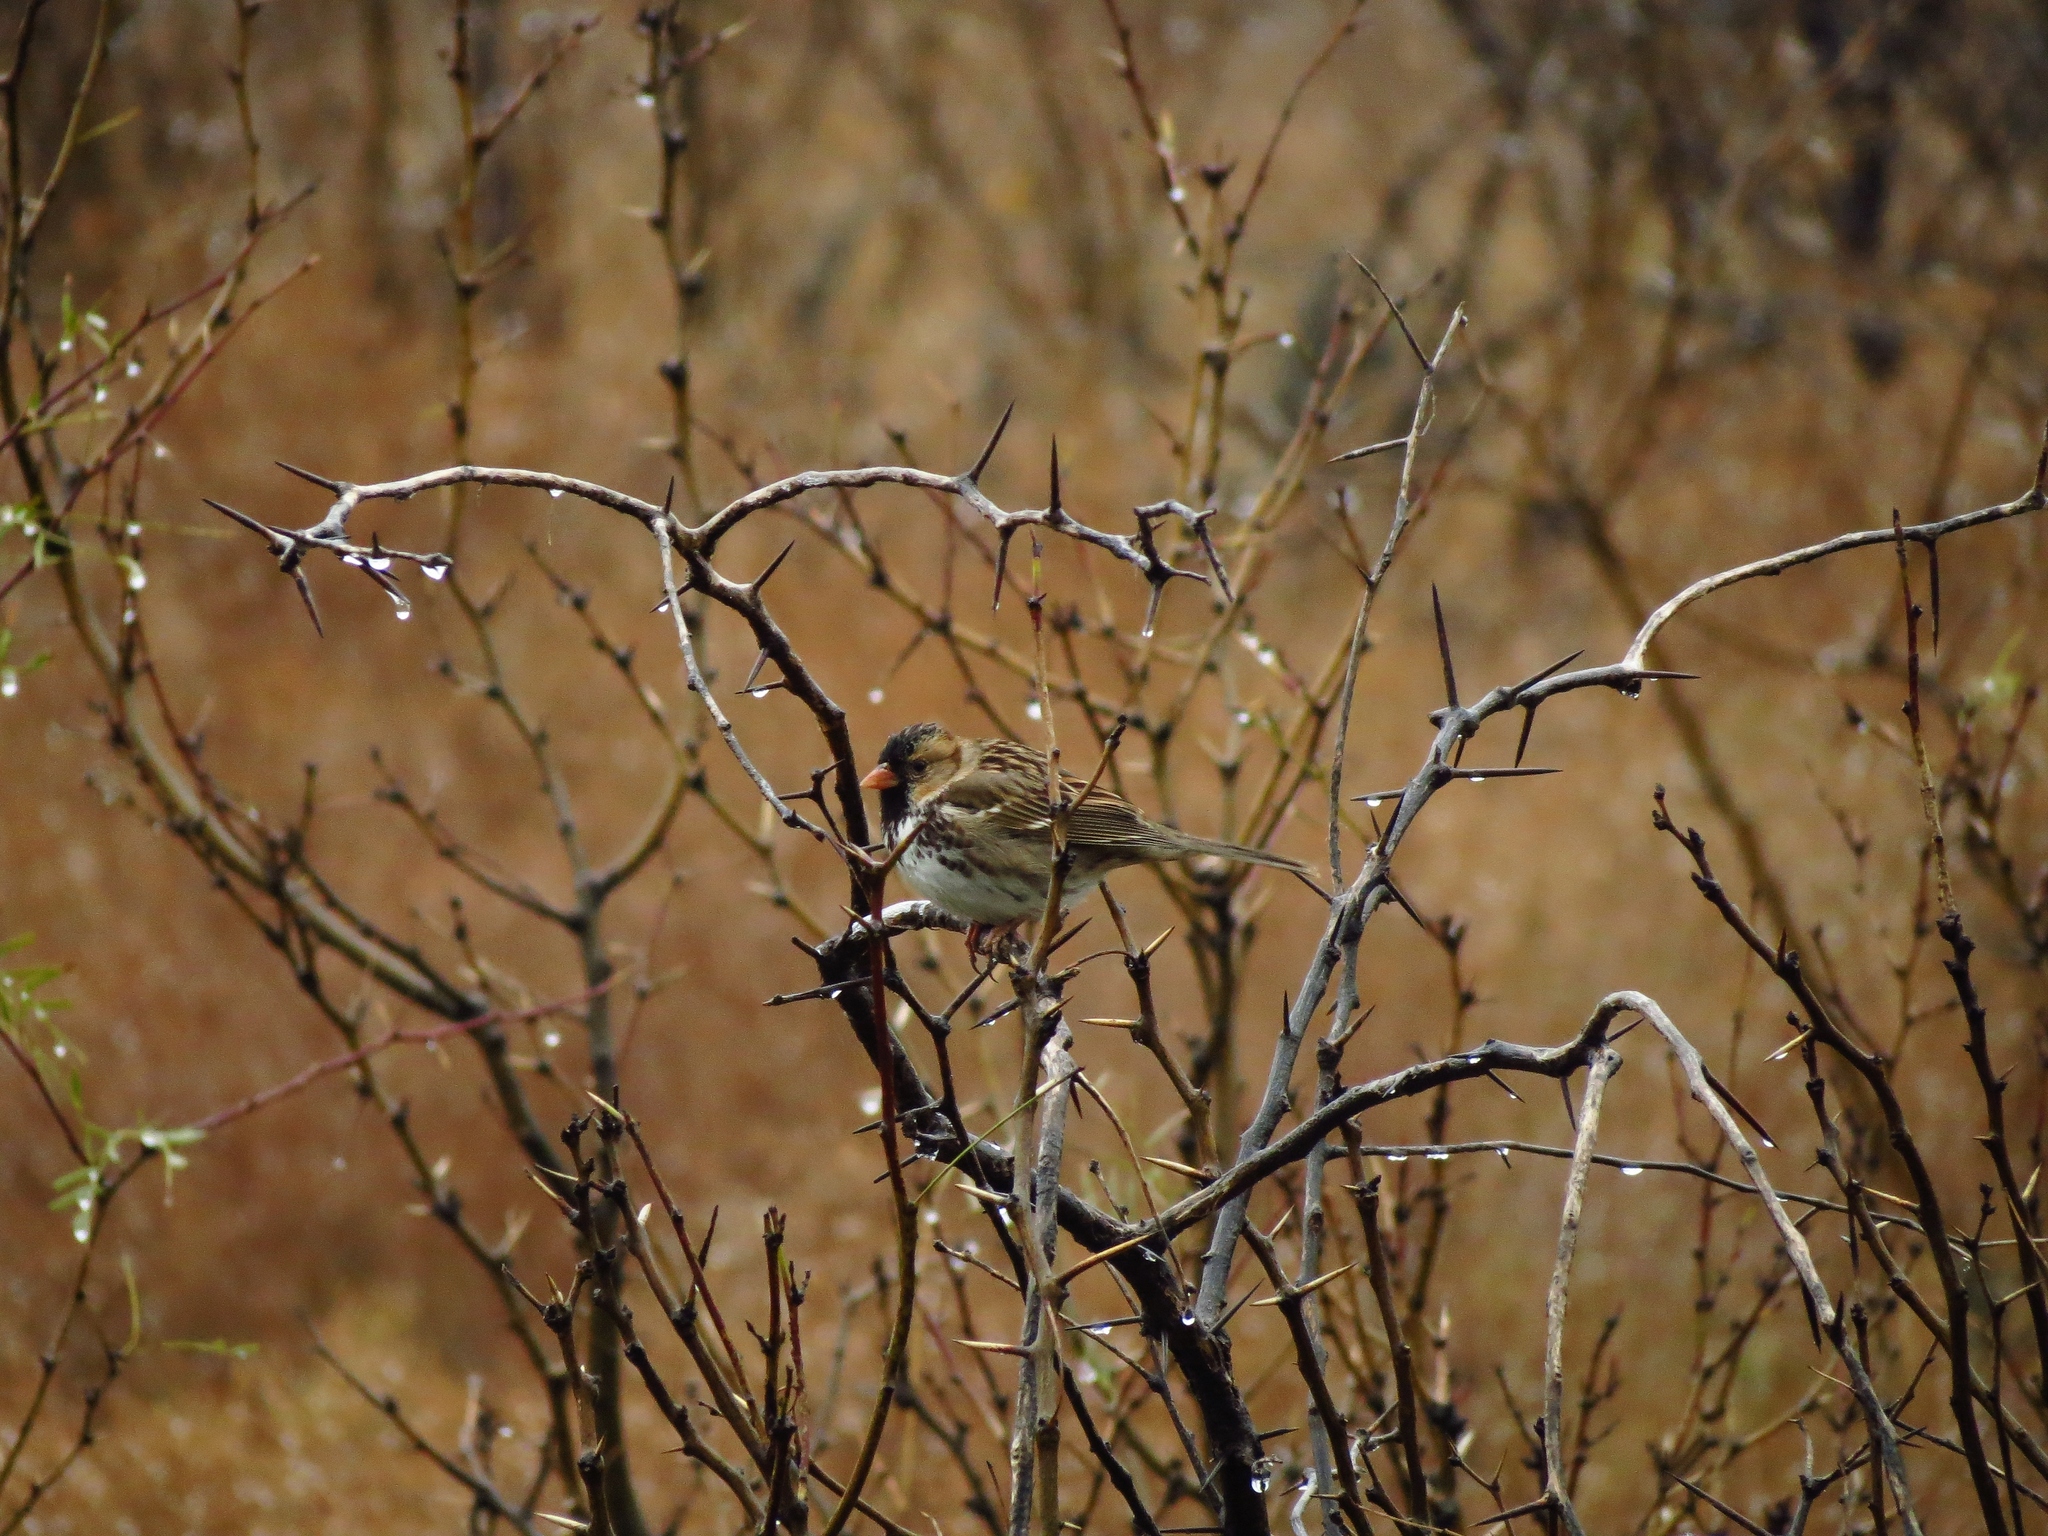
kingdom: Animalia
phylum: Chordata
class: Aves
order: Passeriformes
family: Passerellidae
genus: Zonotrichia
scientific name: Zonotrichia querula
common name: Harris's sparrow
